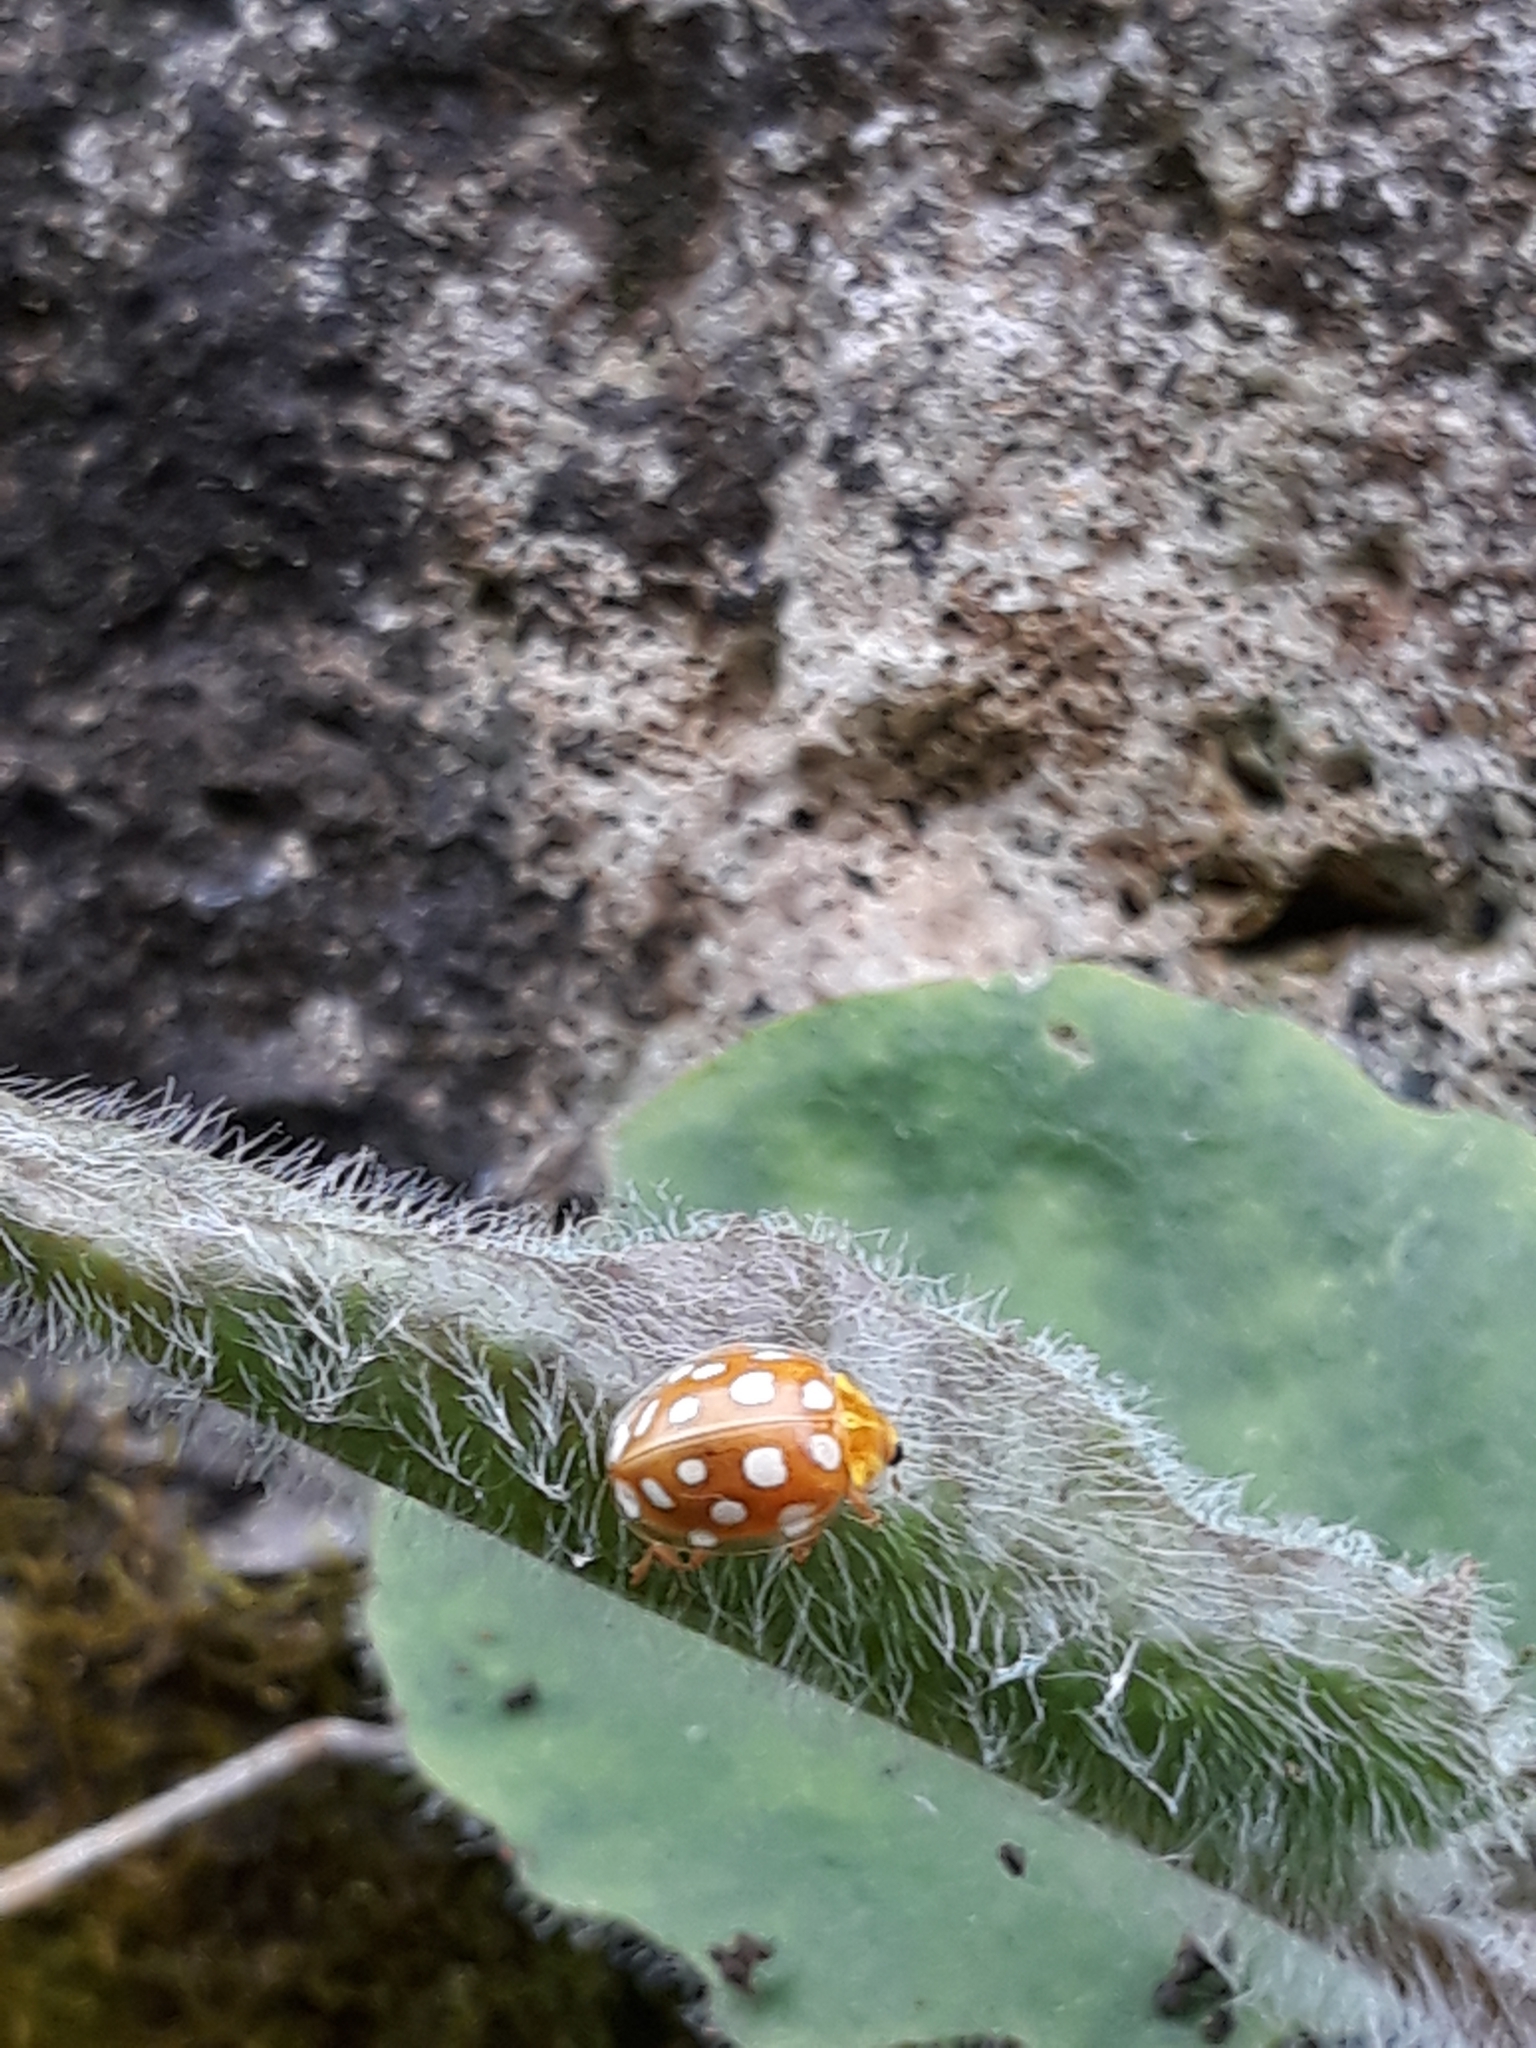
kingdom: Animalia
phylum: Arthropoda
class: Insecta
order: Coleoptera
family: Coccinellidae
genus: Halyzia
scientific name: Halyzia sedecimguttata
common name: Orange ladybird
